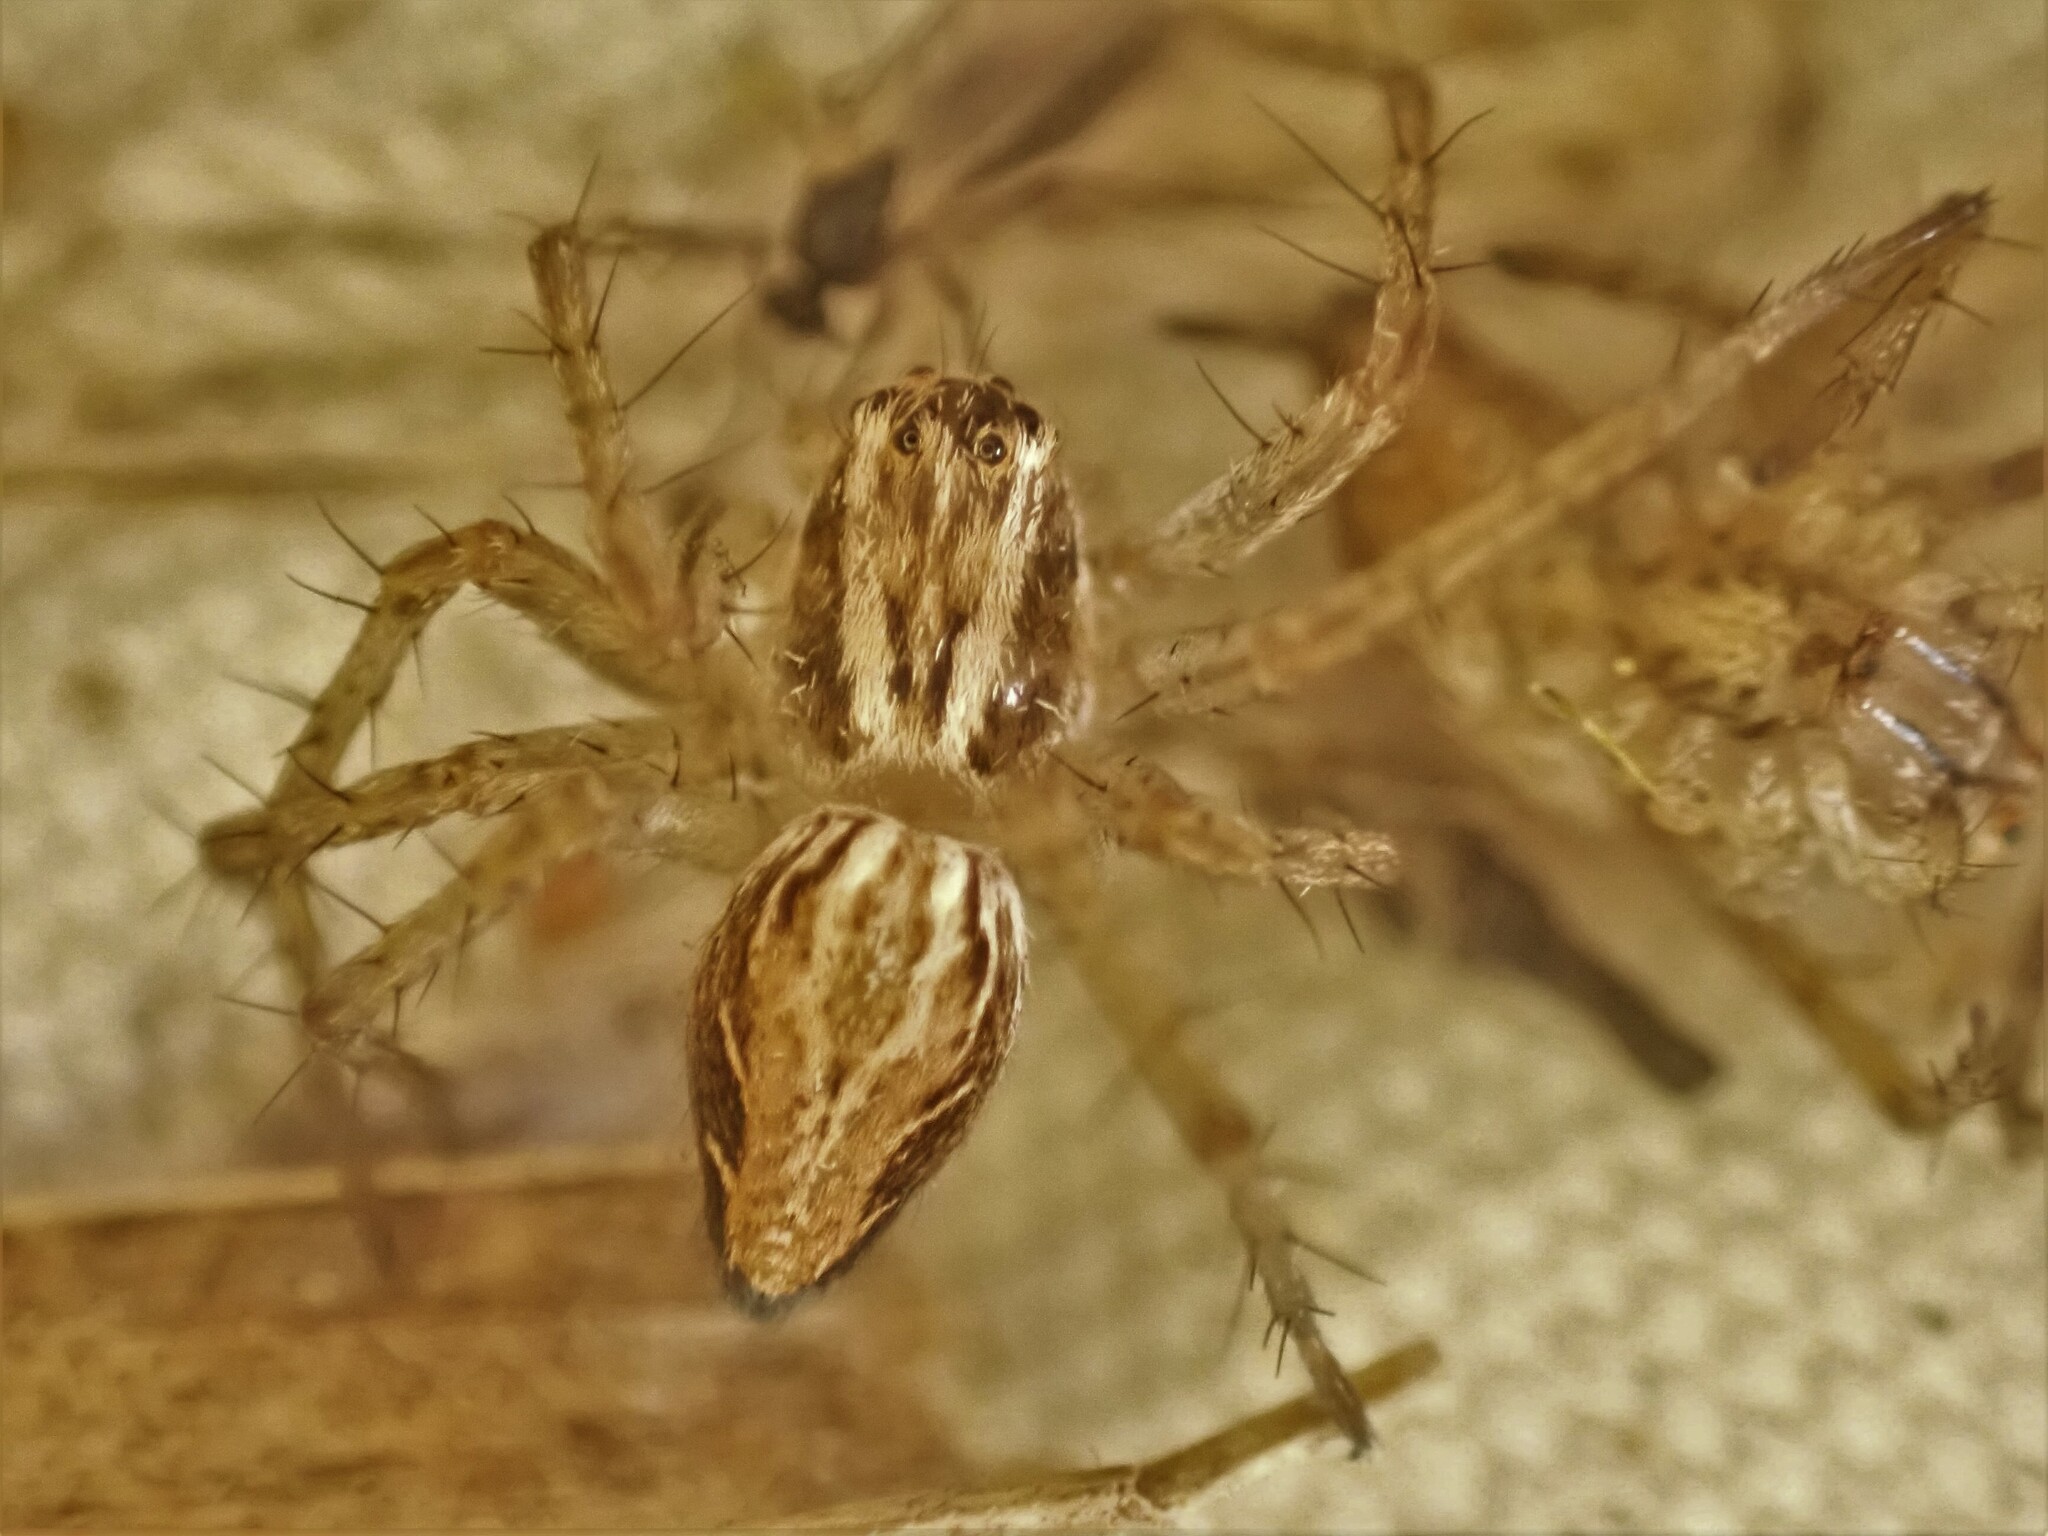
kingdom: Animalia
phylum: Arthropoda
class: Arachnida
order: Araneae
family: Oxyopidae
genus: Oxyopes
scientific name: Oxyopes gracilipes
